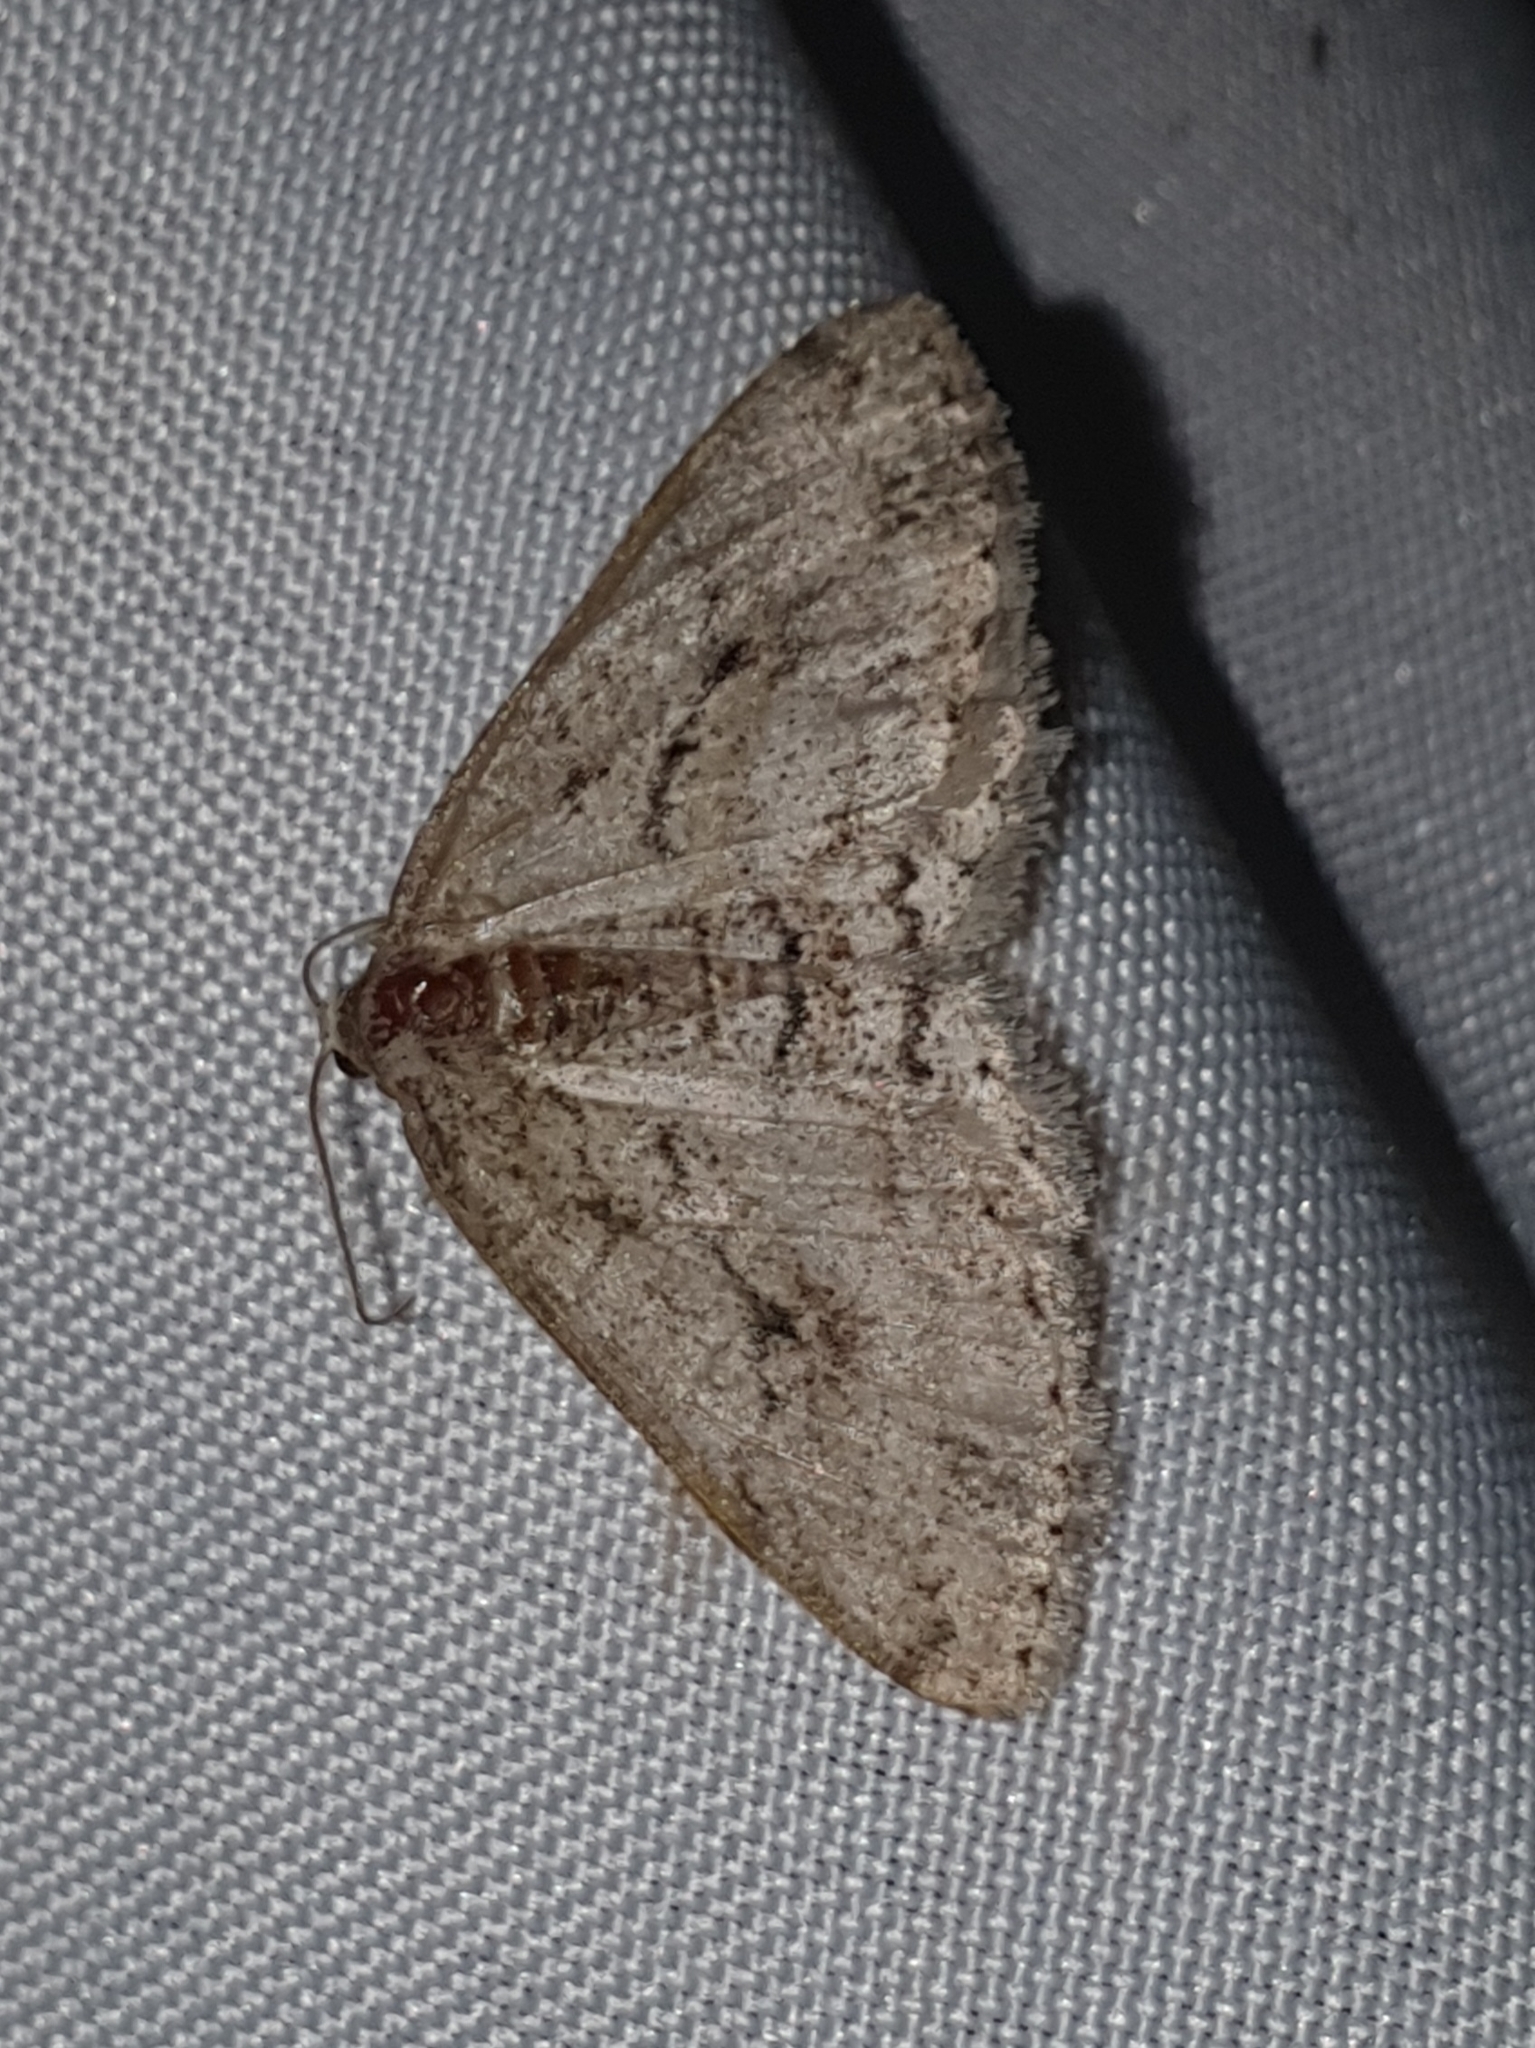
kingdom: Animalia
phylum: Arthropoda
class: Insecta
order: Lepidoptera
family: Geometridae
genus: Ectropis
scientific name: Ectropis crepuscularia
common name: Engrailed
